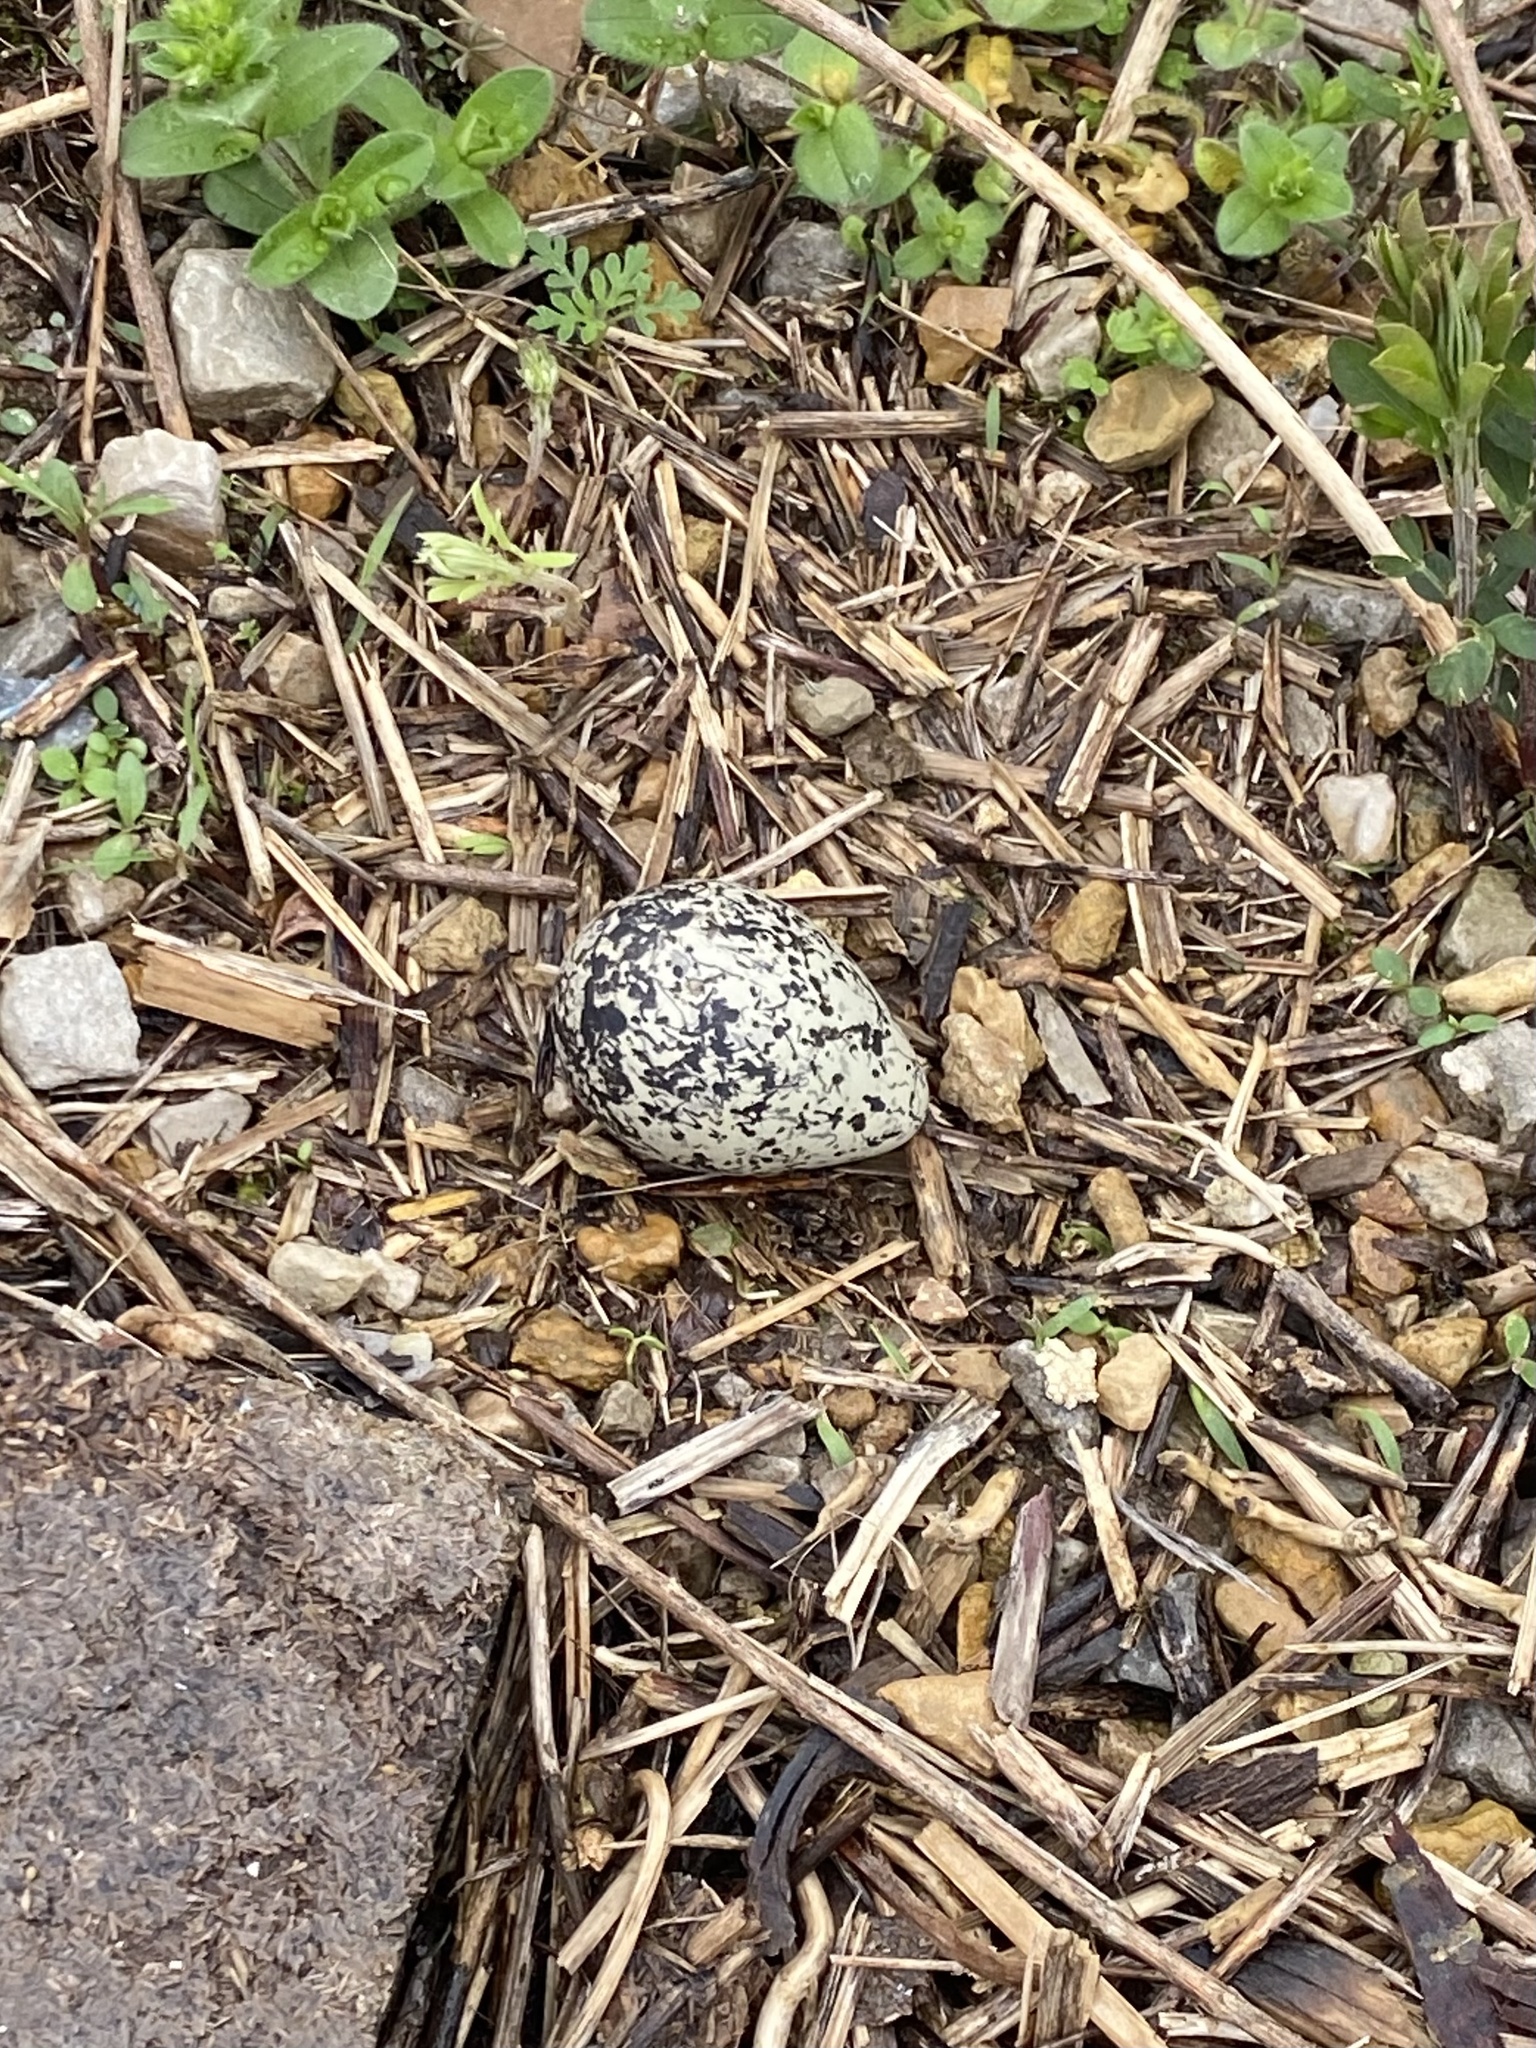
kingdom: Animalia
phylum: Chordata
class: Aves
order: Charadriiformes
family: Charadriidae
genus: Charadrius
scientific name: Charadrius vociferus
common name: Killdeer
